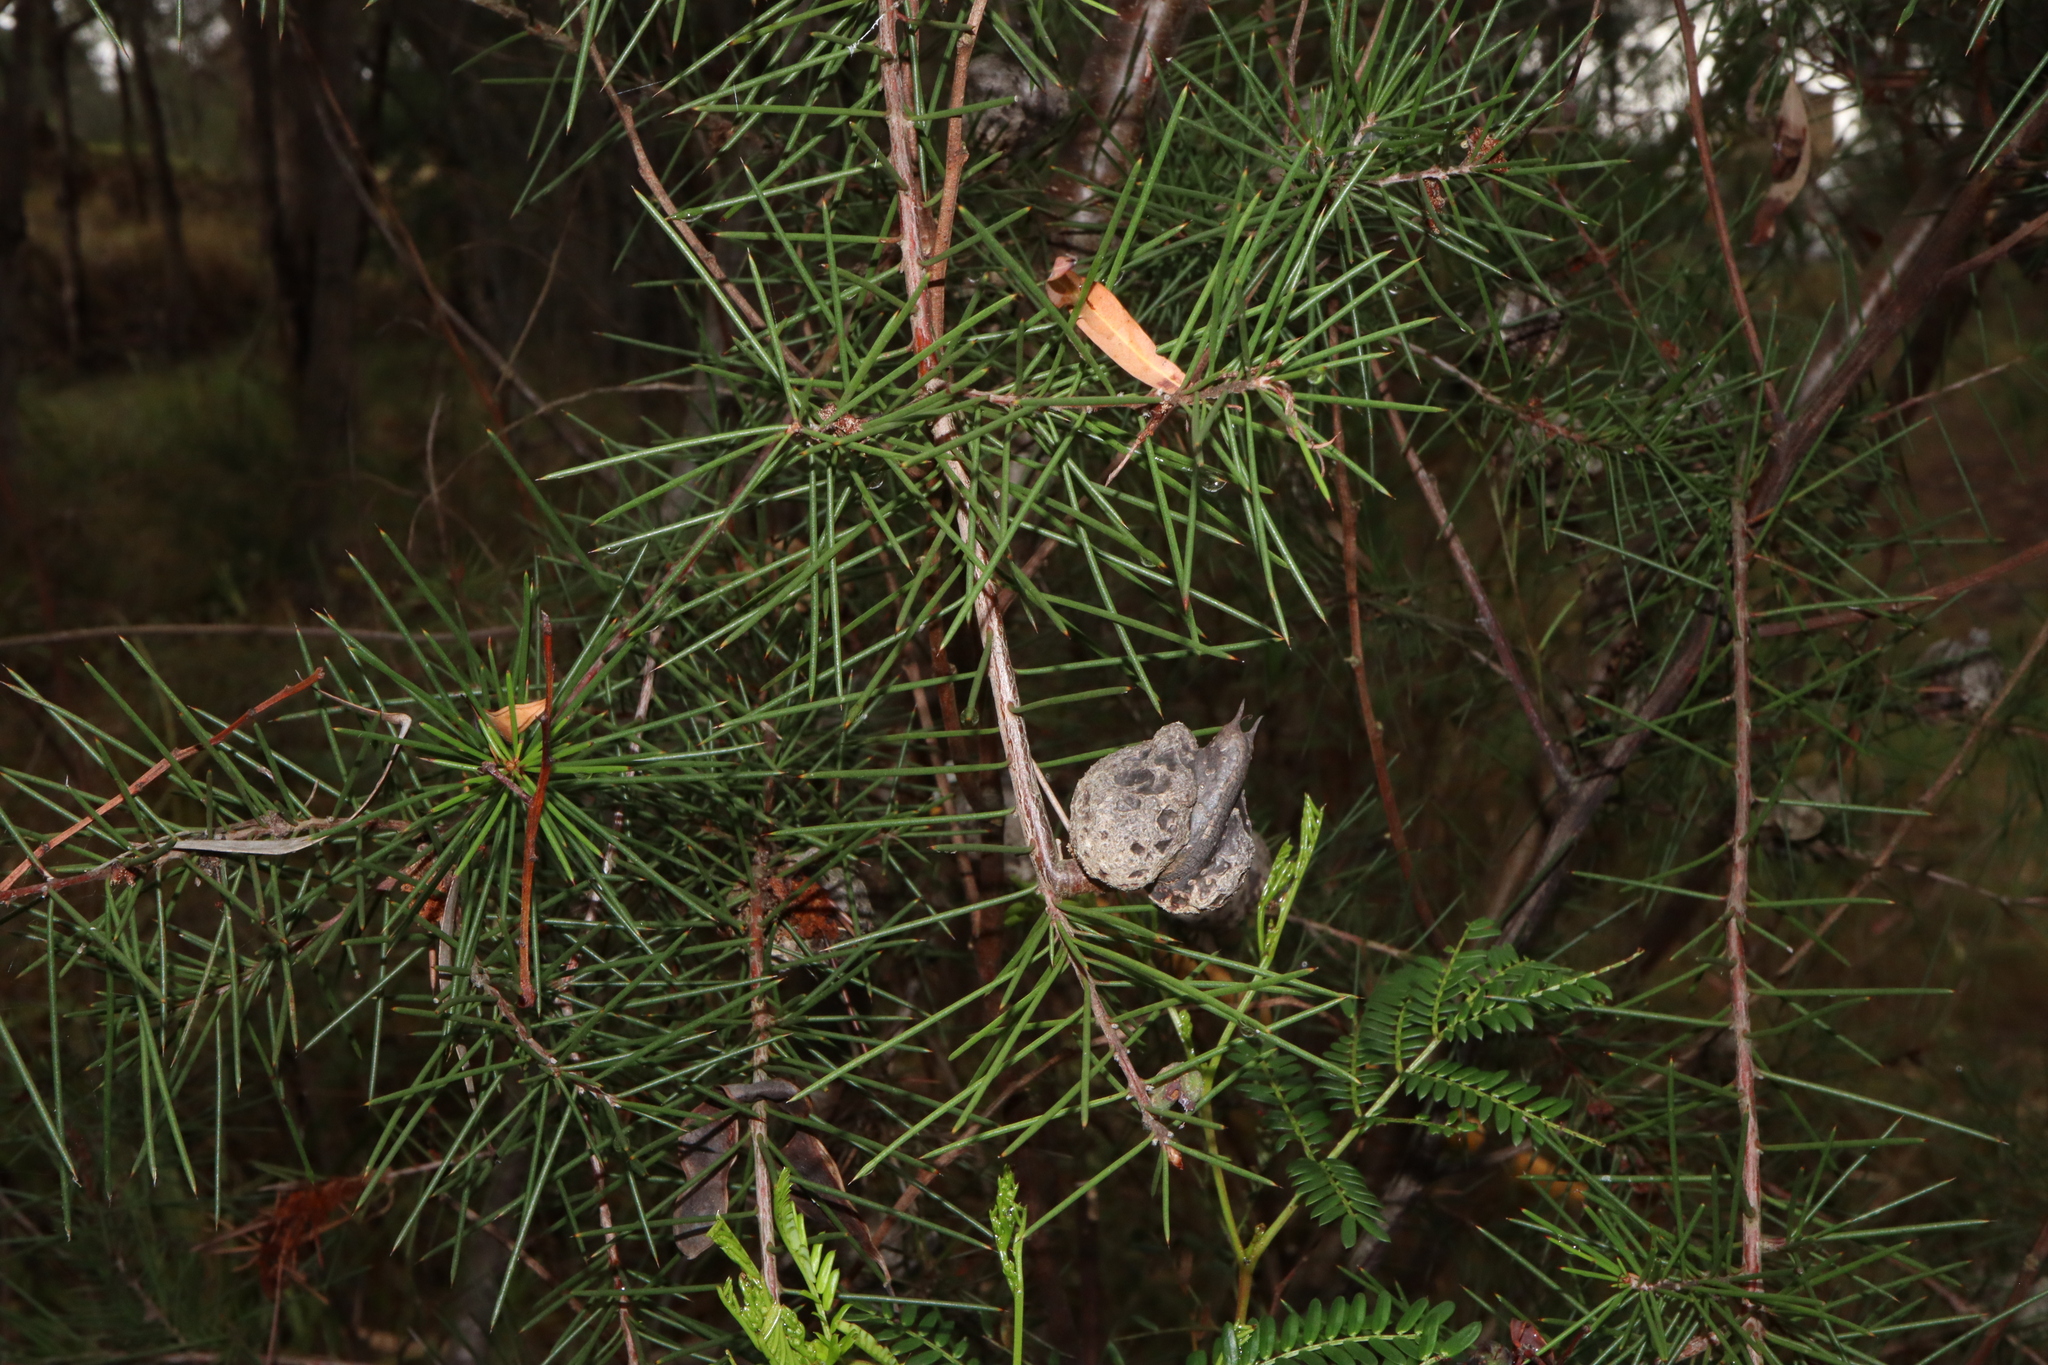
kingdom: Plantae
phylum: Tracheophyta
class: Magnoliopsida
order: Proteales
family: Proteaceae
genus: Hakea
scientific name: Hakea sericea
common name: Needle bush
